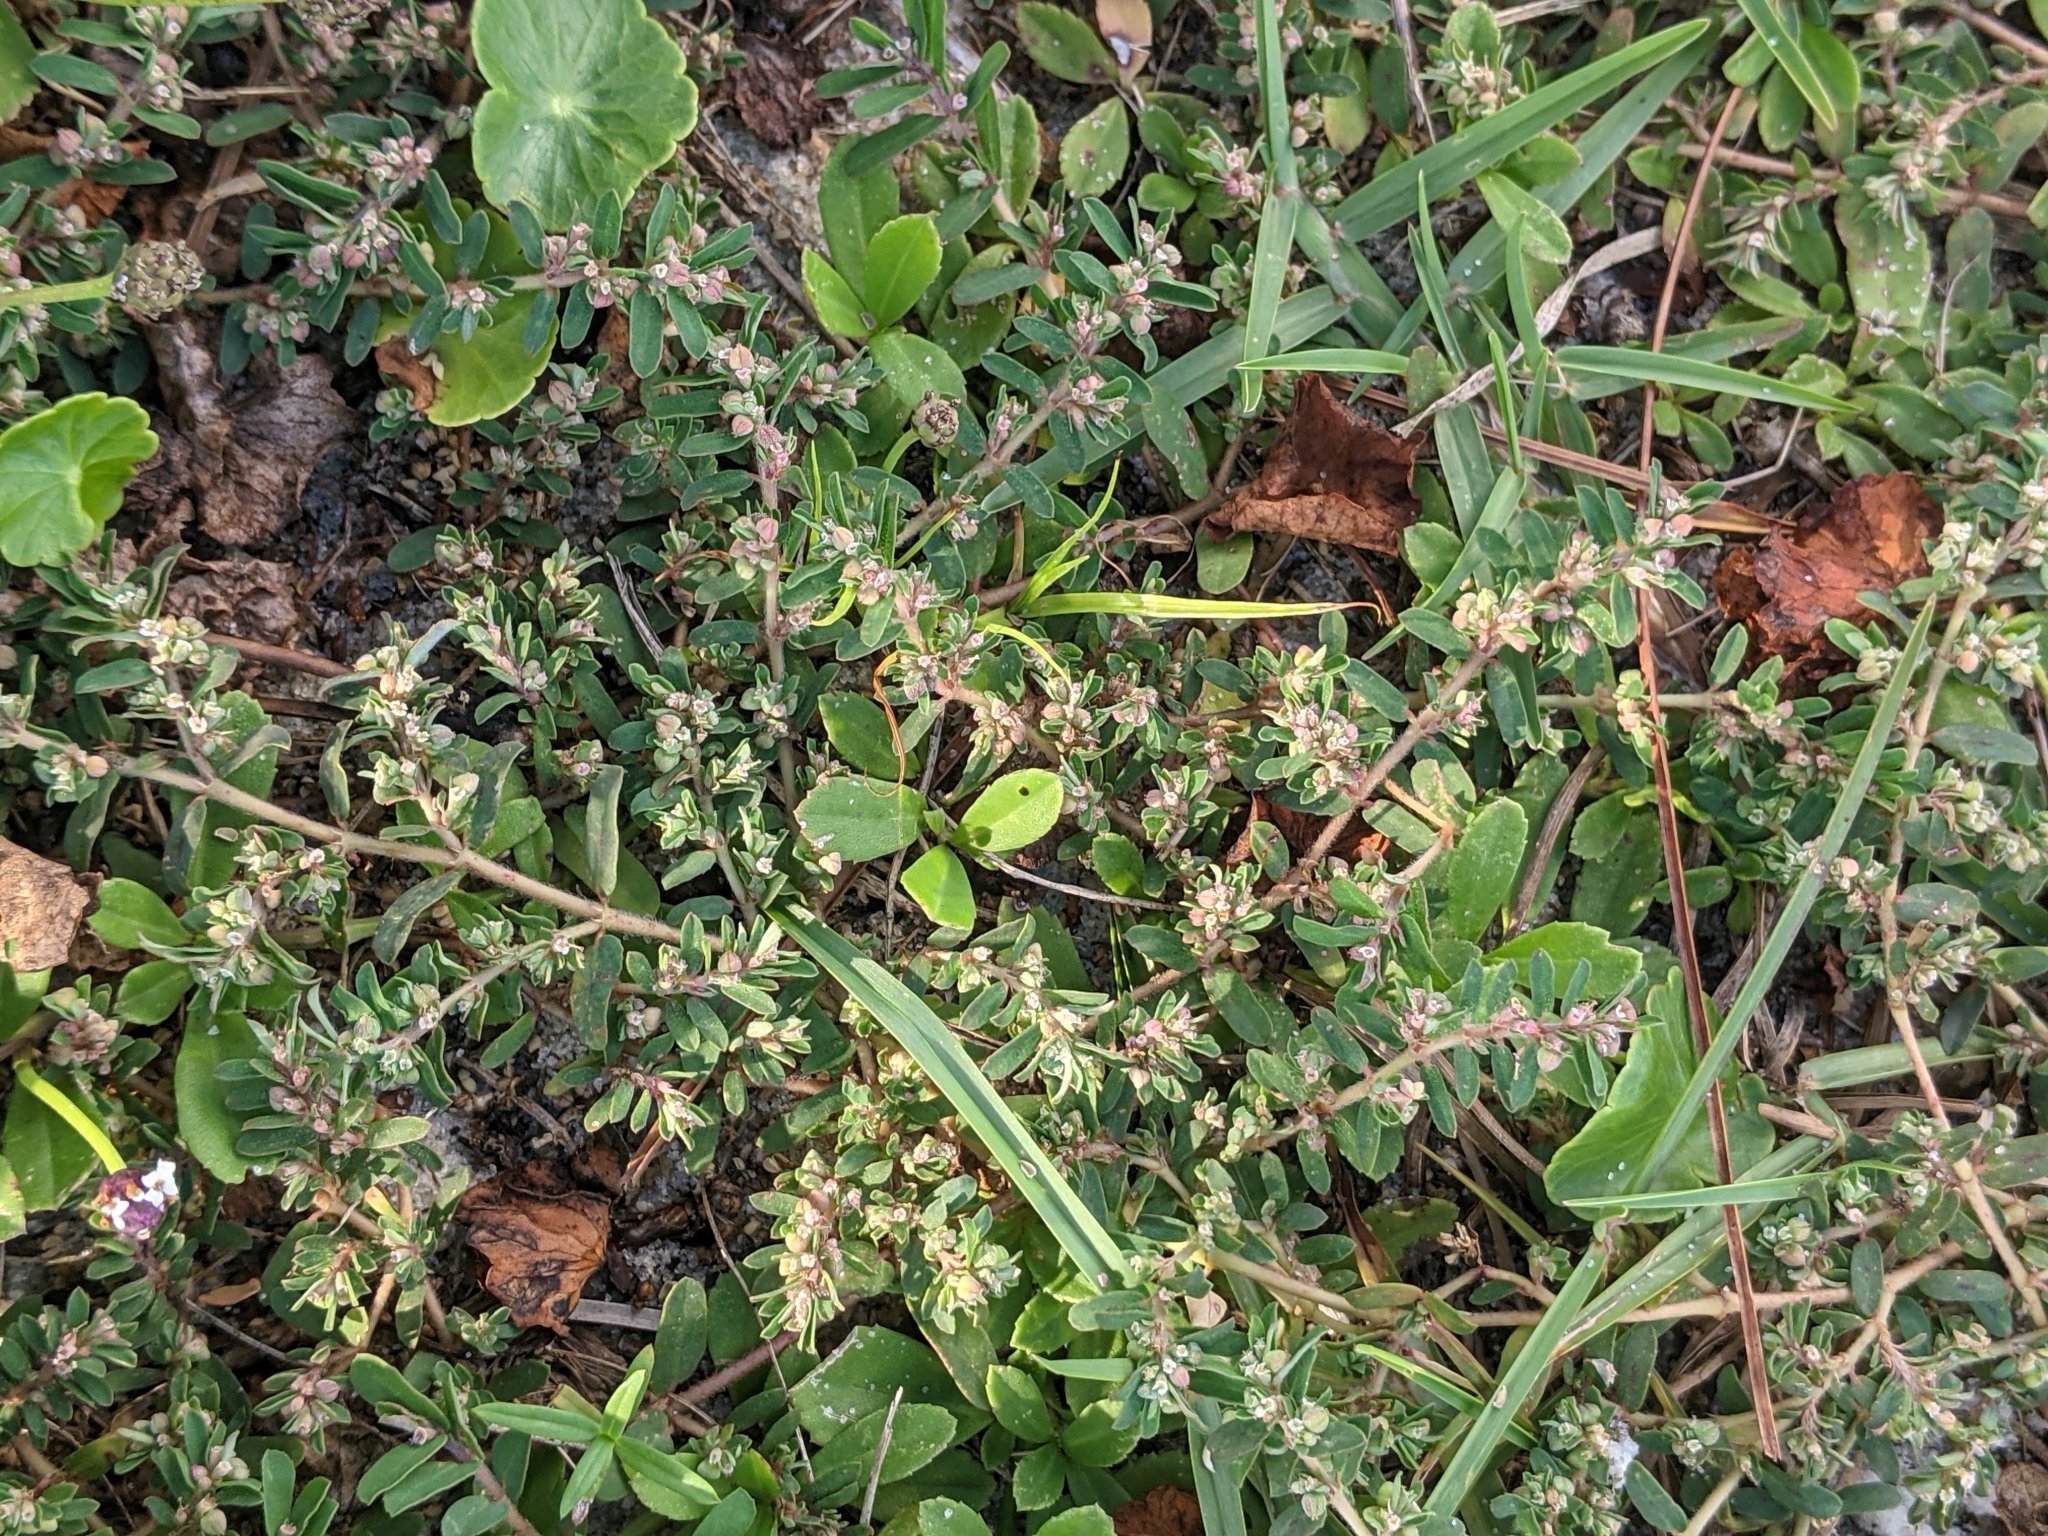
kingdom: Plantae
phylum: Tracheophyta
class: Magnoliopsida
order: Malpighiales
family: Euphorbiaceae
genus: Euphorbia
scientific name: Euphorbia maculata
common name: Spotted spurge
